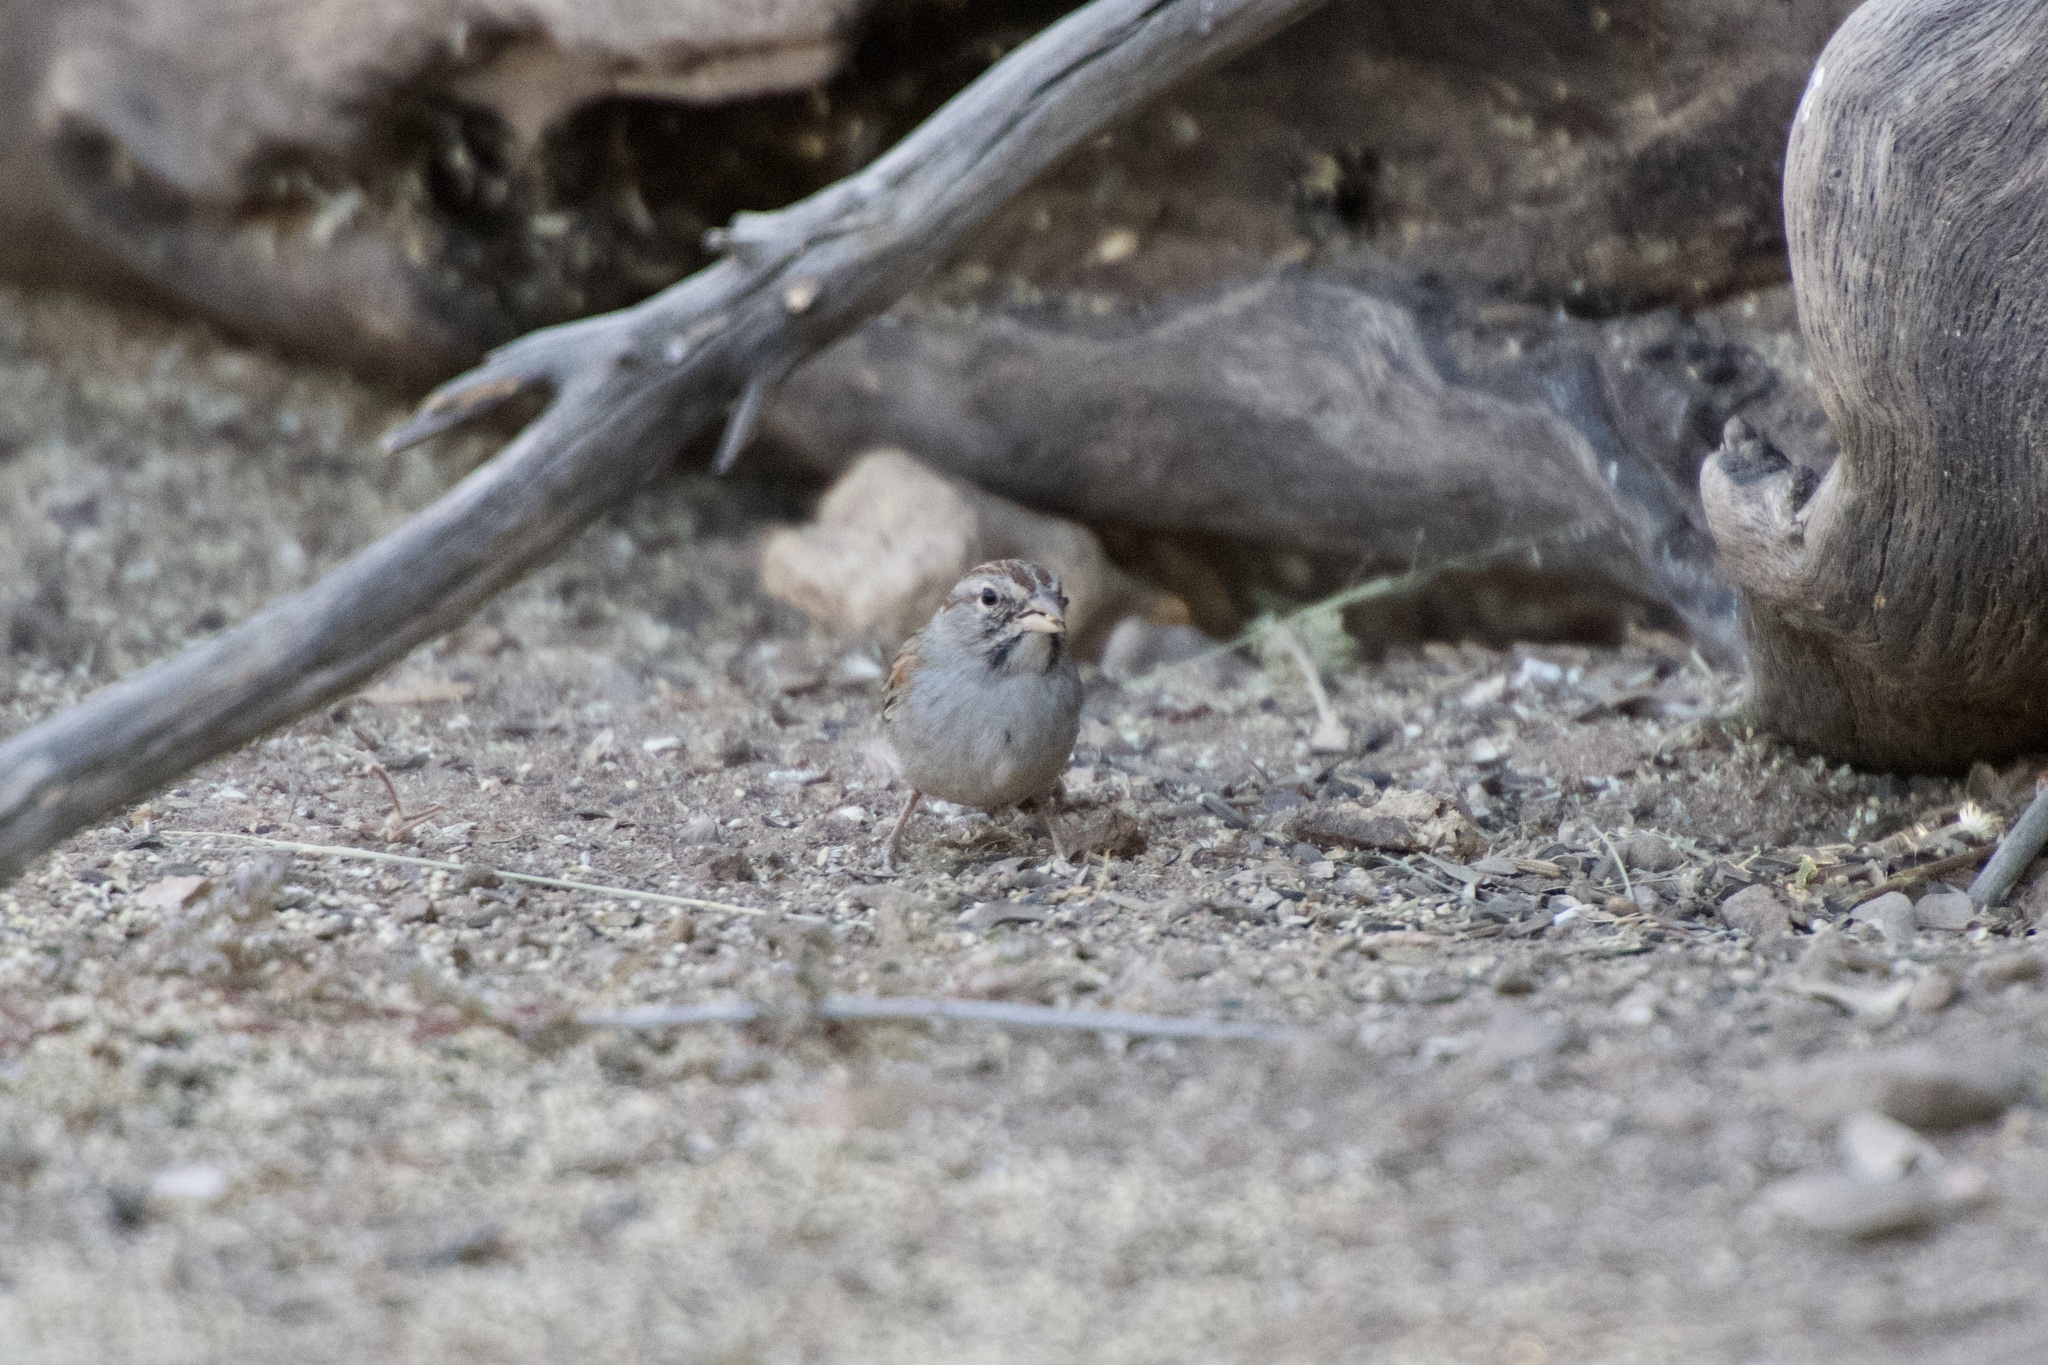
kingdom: Animalia
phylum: Chordata
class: Aves
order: Passeriformes
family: Passerellidae
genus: Peucaea
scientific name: Peucaea carpalis
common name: Rufous-winged sparrow
